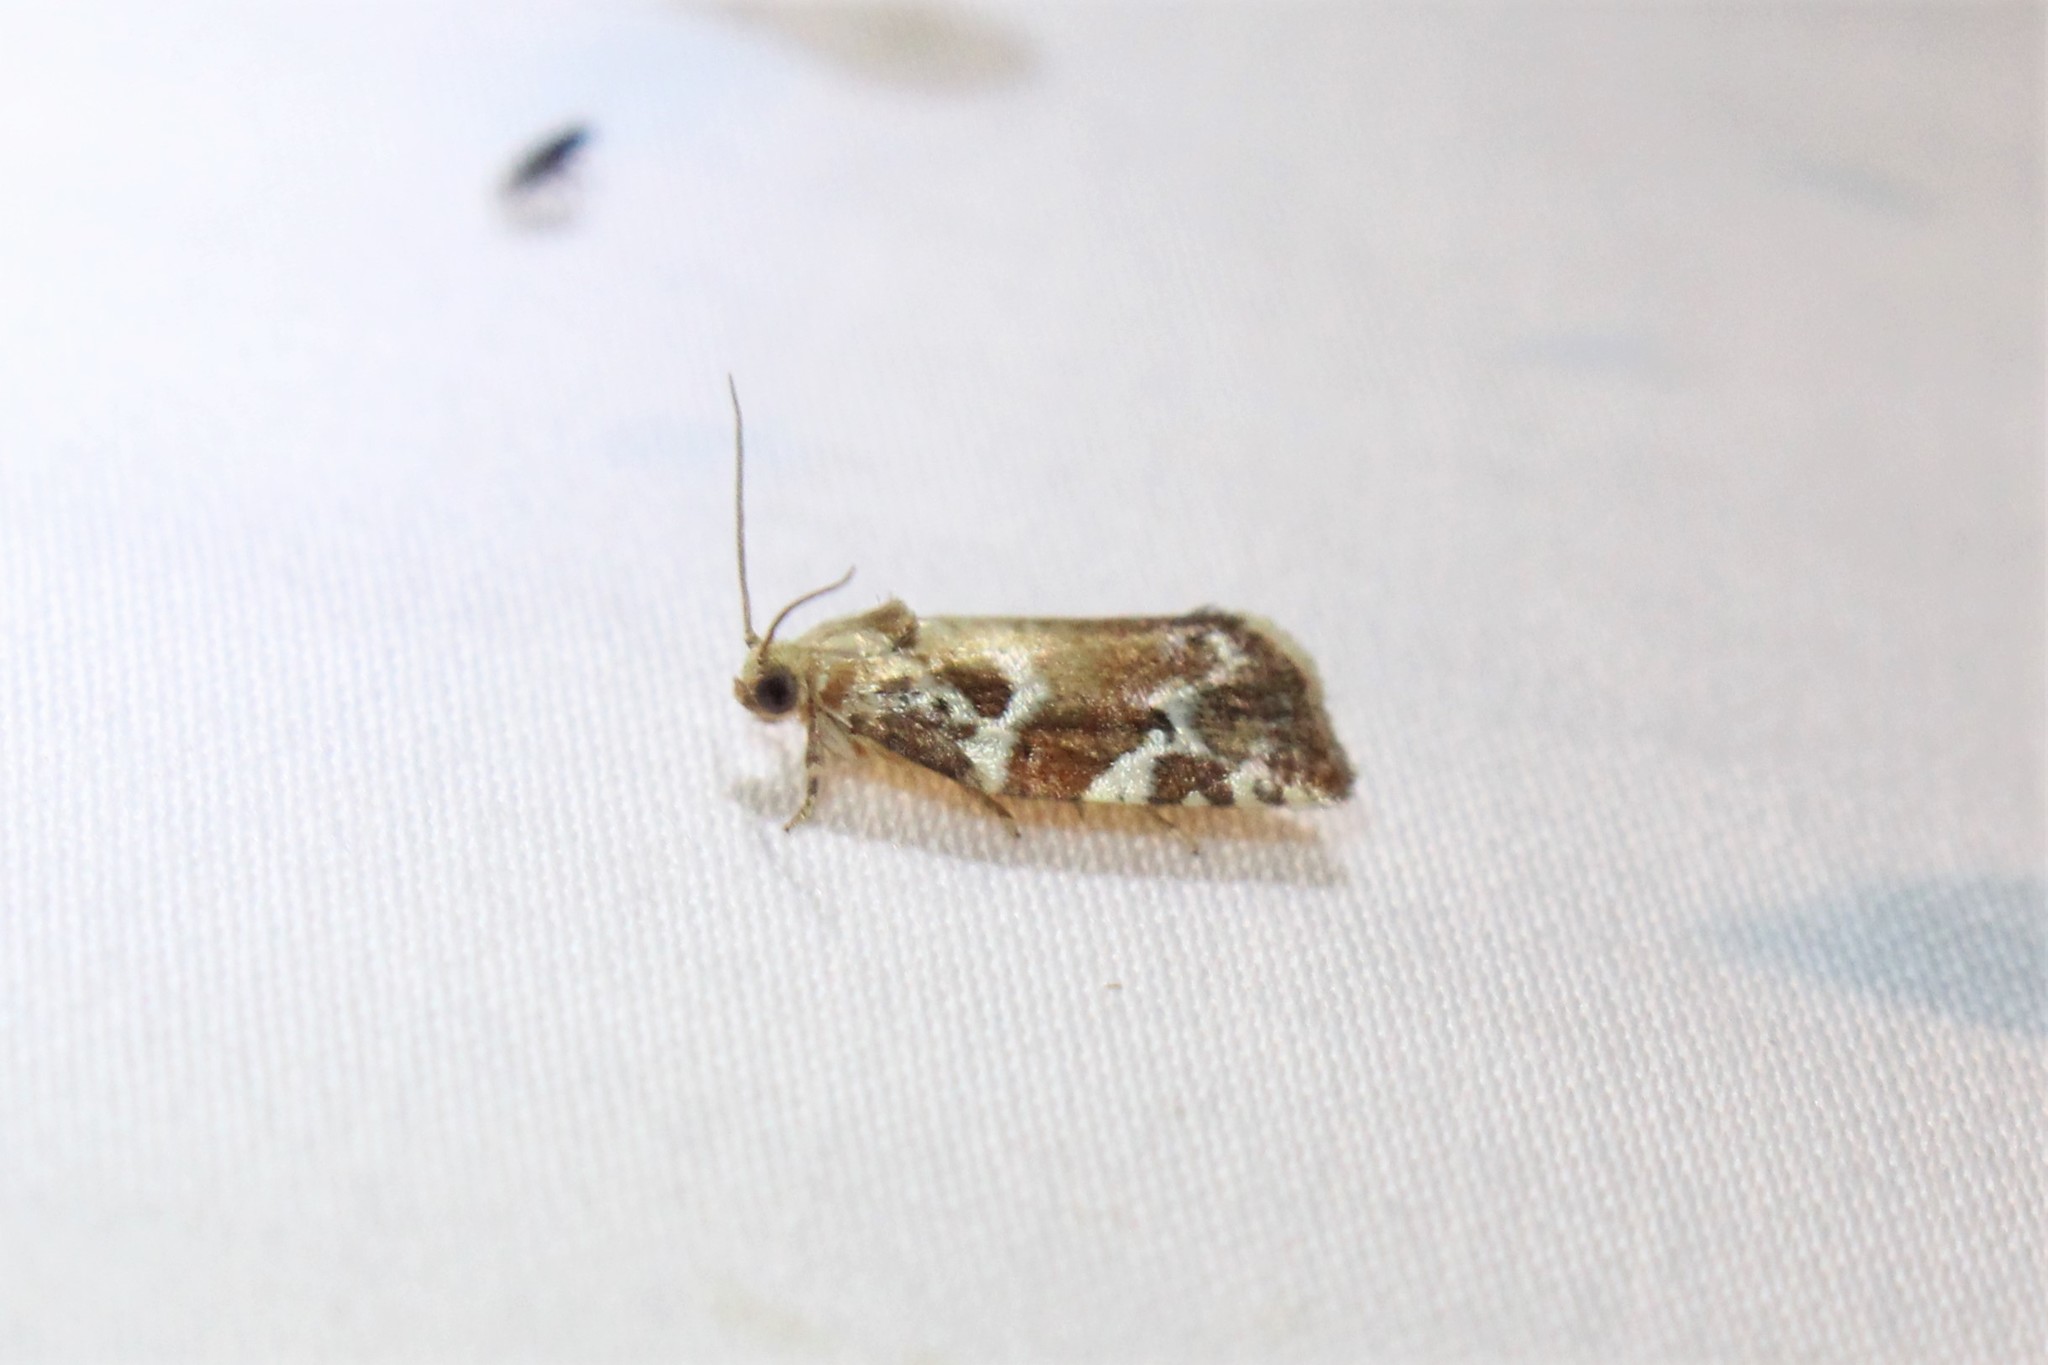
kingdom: Animalia
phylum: Arthropoda
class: Insecta
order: Lepidoptera
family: Tortricidae
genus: Archips
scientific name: Archips semiferanus
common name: Oak leafroller
